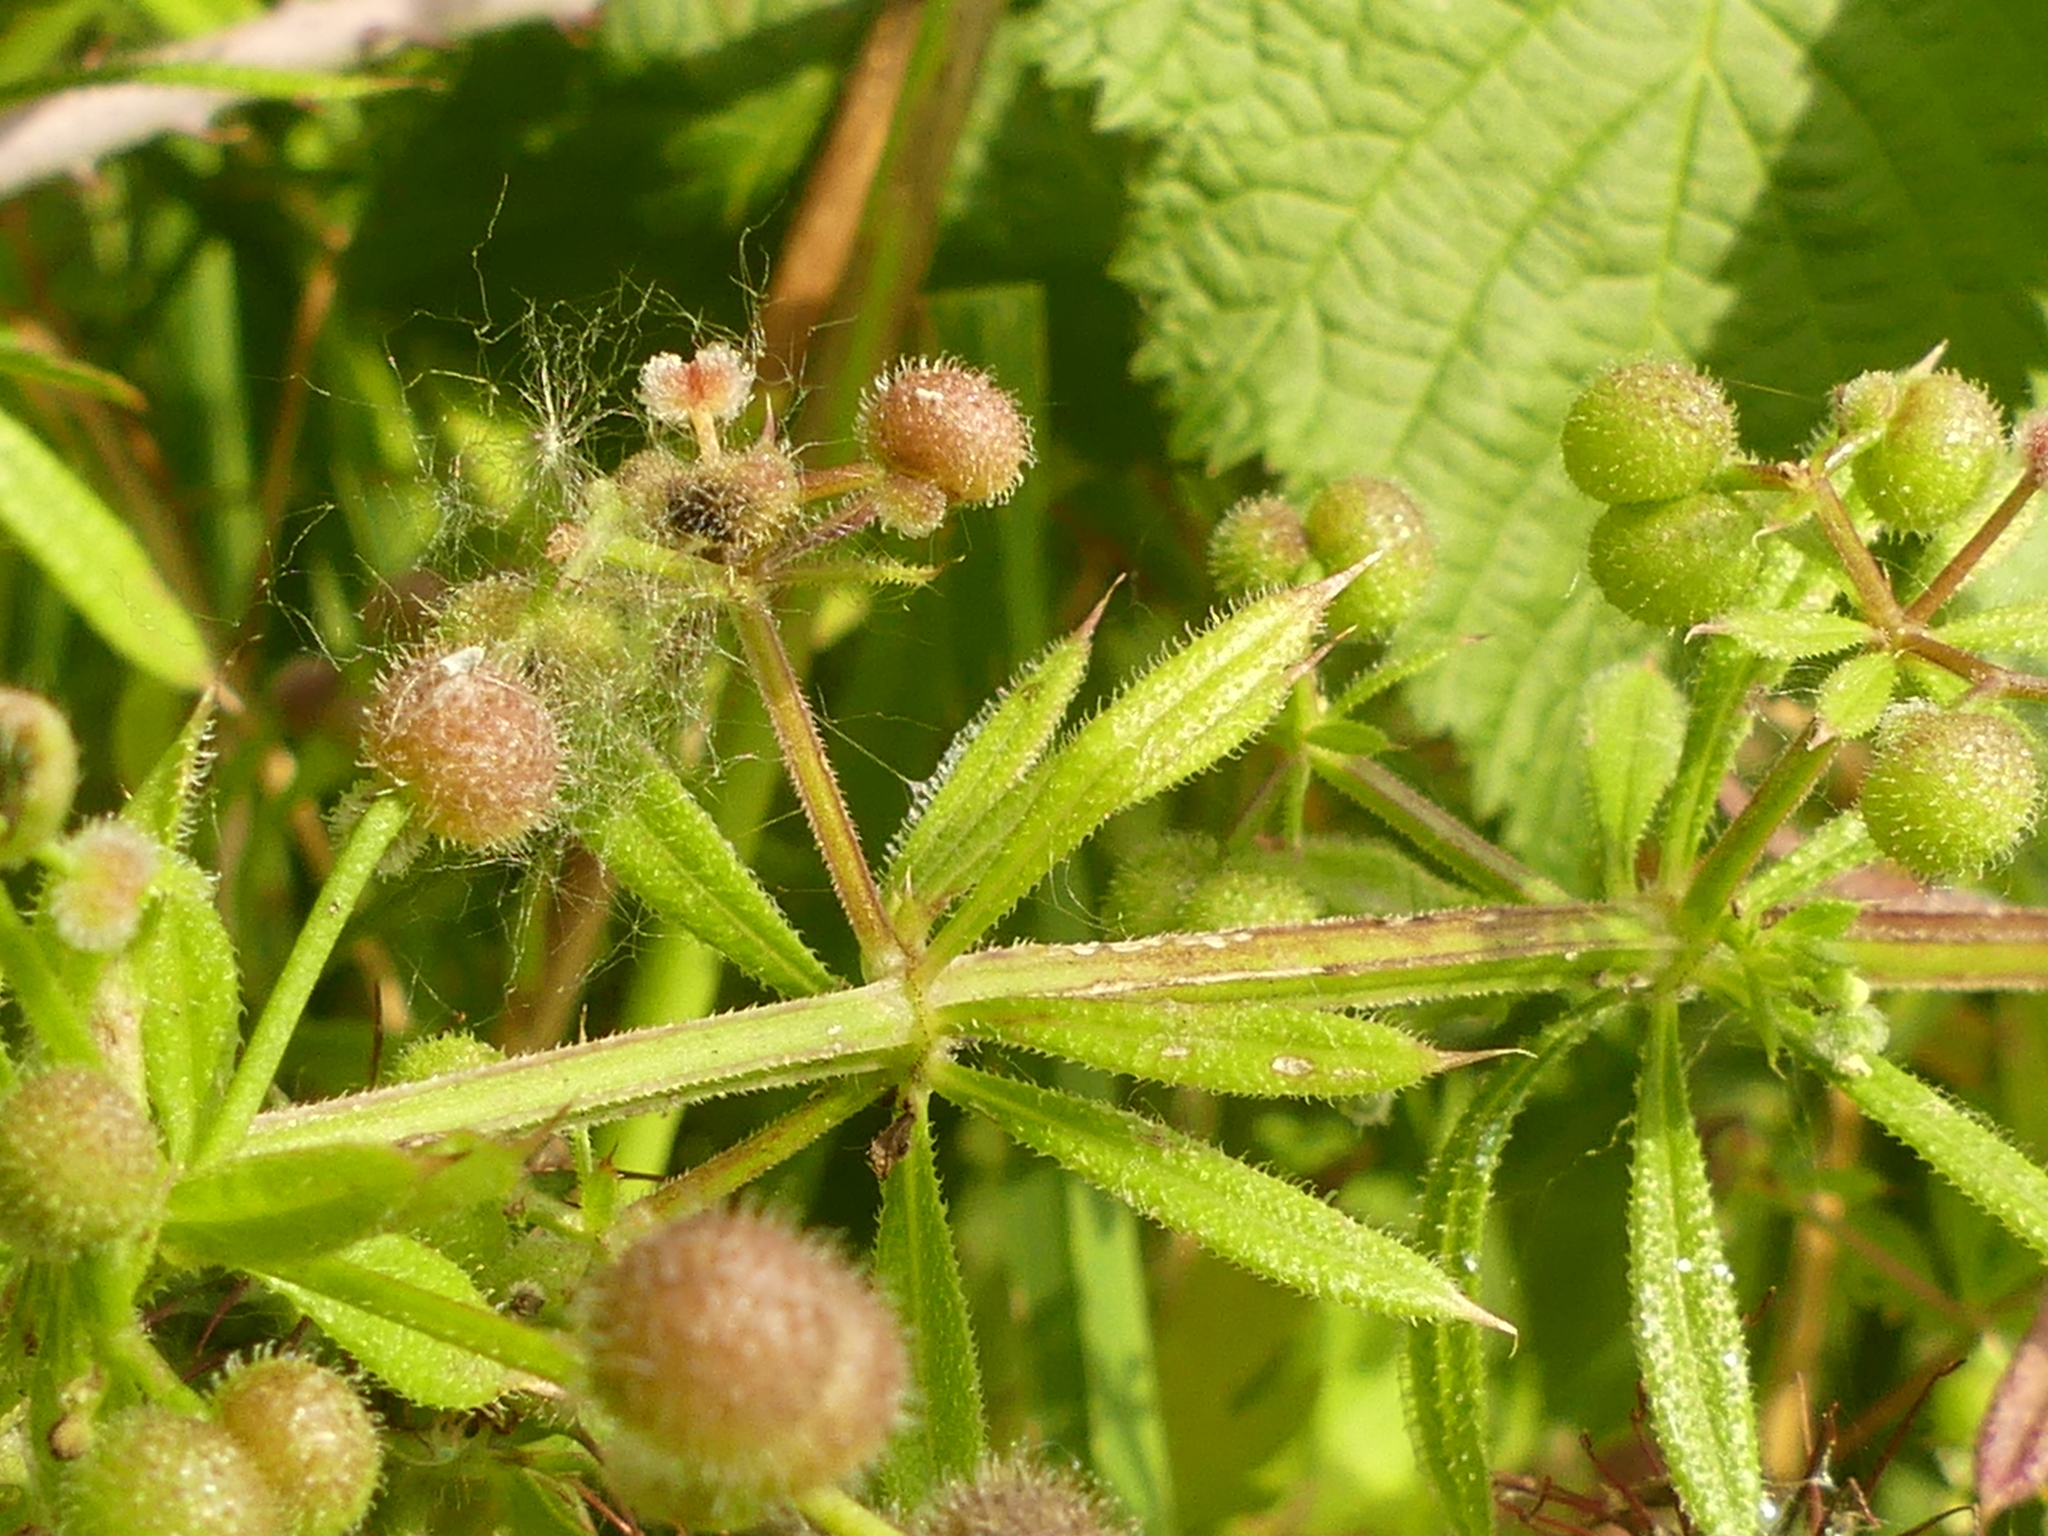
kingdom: Plantae
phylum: Tracheophyta
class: Magnoliopsida
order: Gentianales
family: Rubiaceae
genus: Galium
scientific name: Galium aparine
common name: Cleavers
